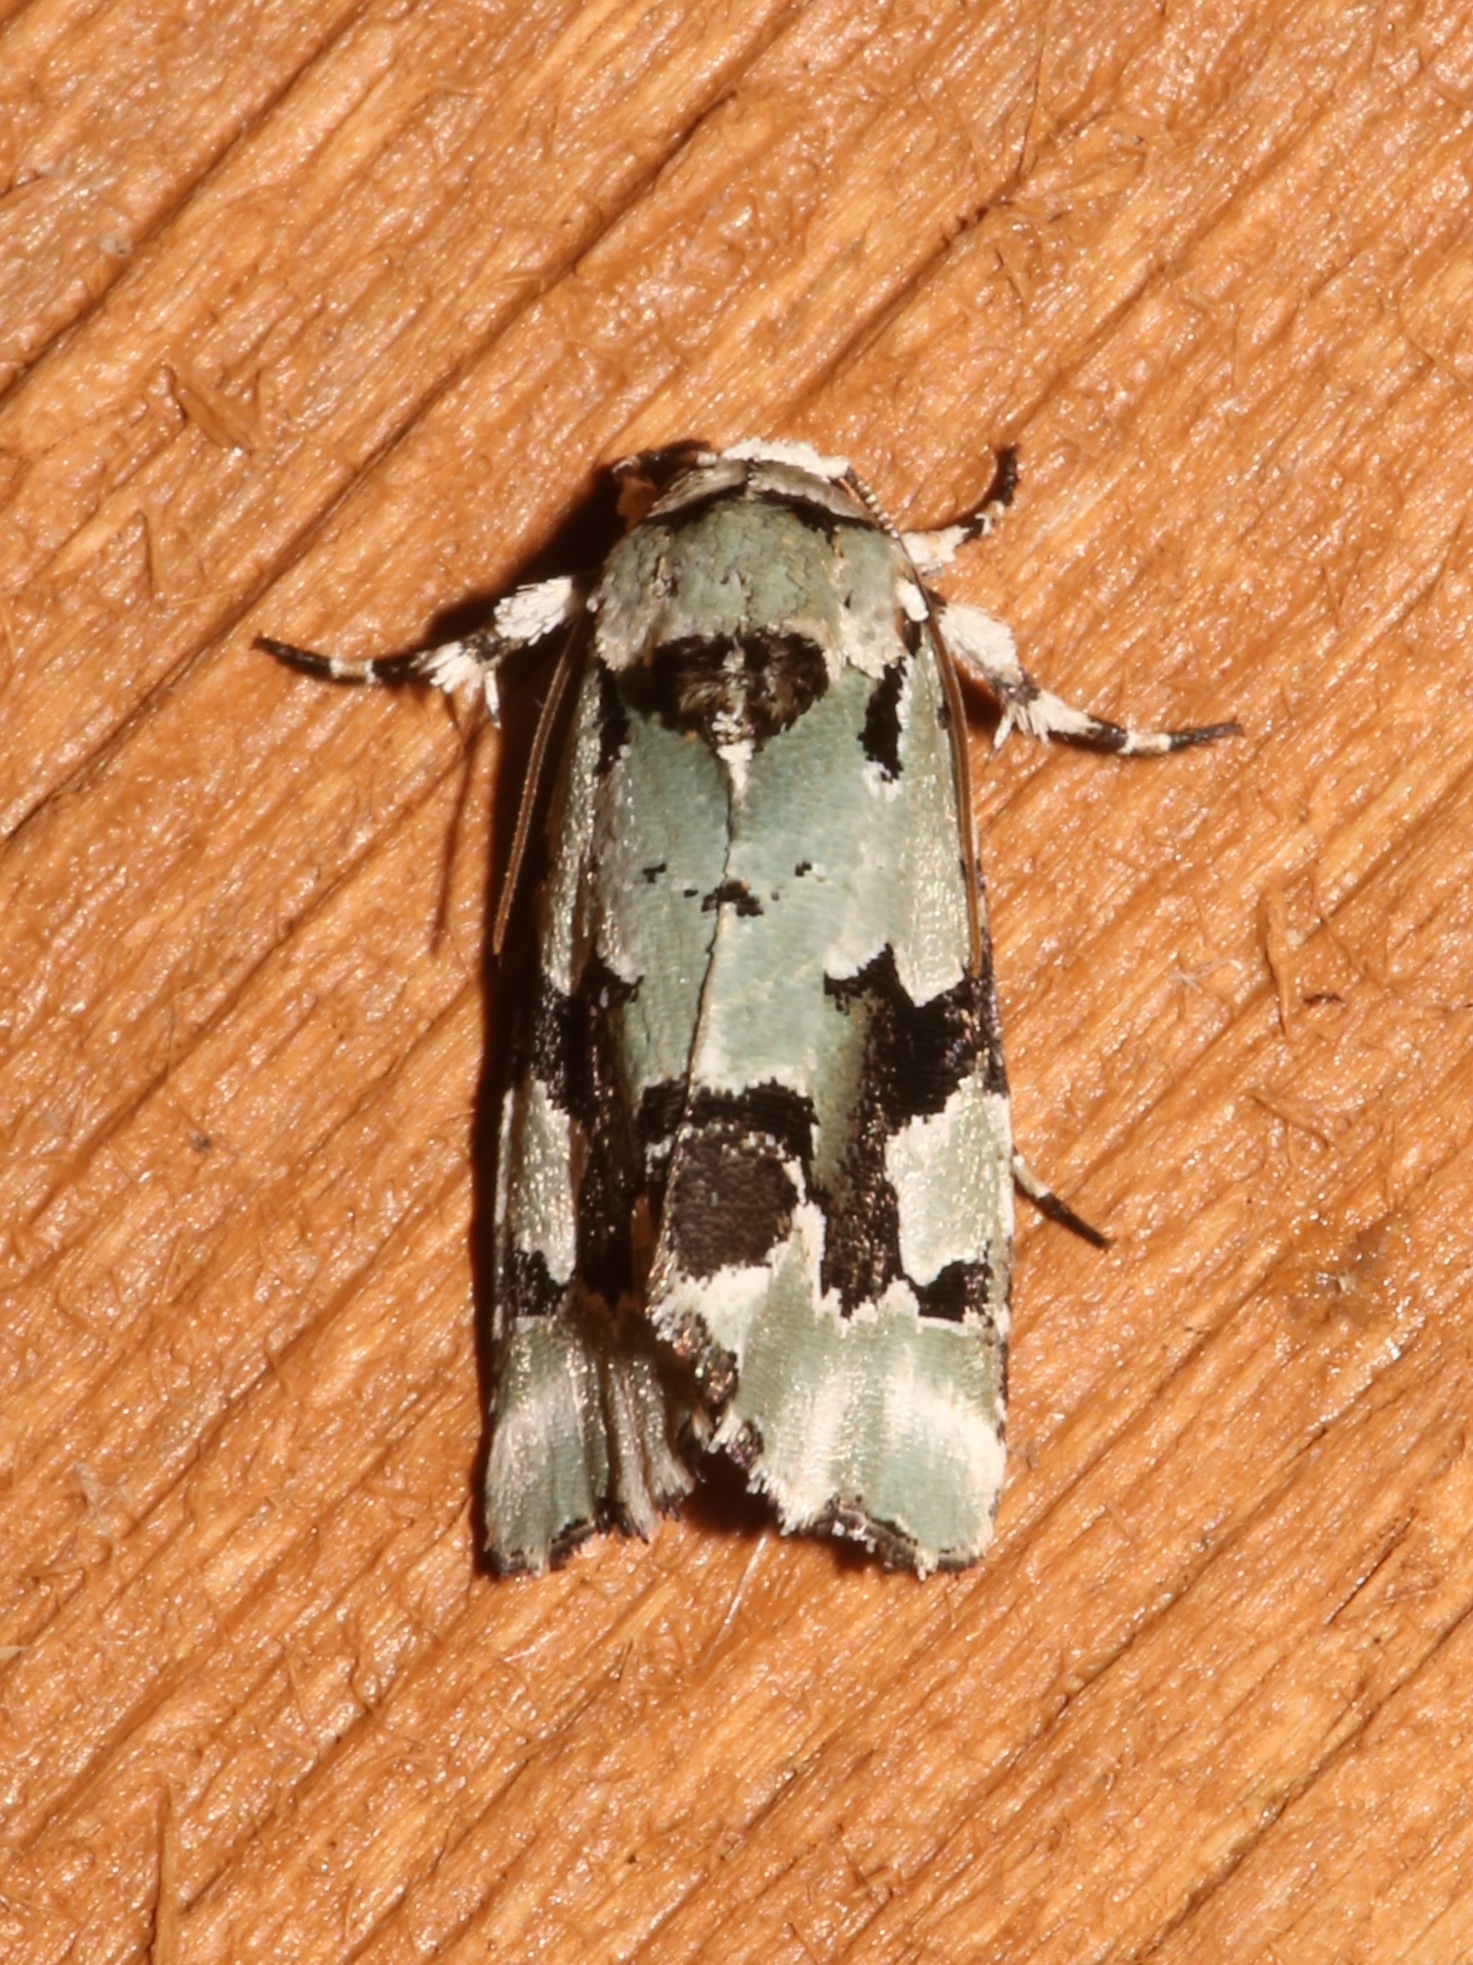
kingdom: Animalia
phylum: Arthropoda
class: Insecta
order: Lepidoptera
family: Noctuidae
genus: Emarginea
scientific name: Emarginea percara
